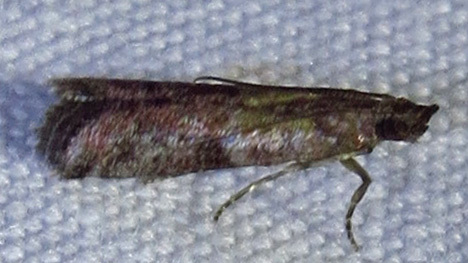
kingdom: Animalia
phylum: Arthropoda
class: Insecta
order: Lepidoptera
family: Pyralidae
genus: Ephestiodes
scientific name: Ephestiodes infimella
